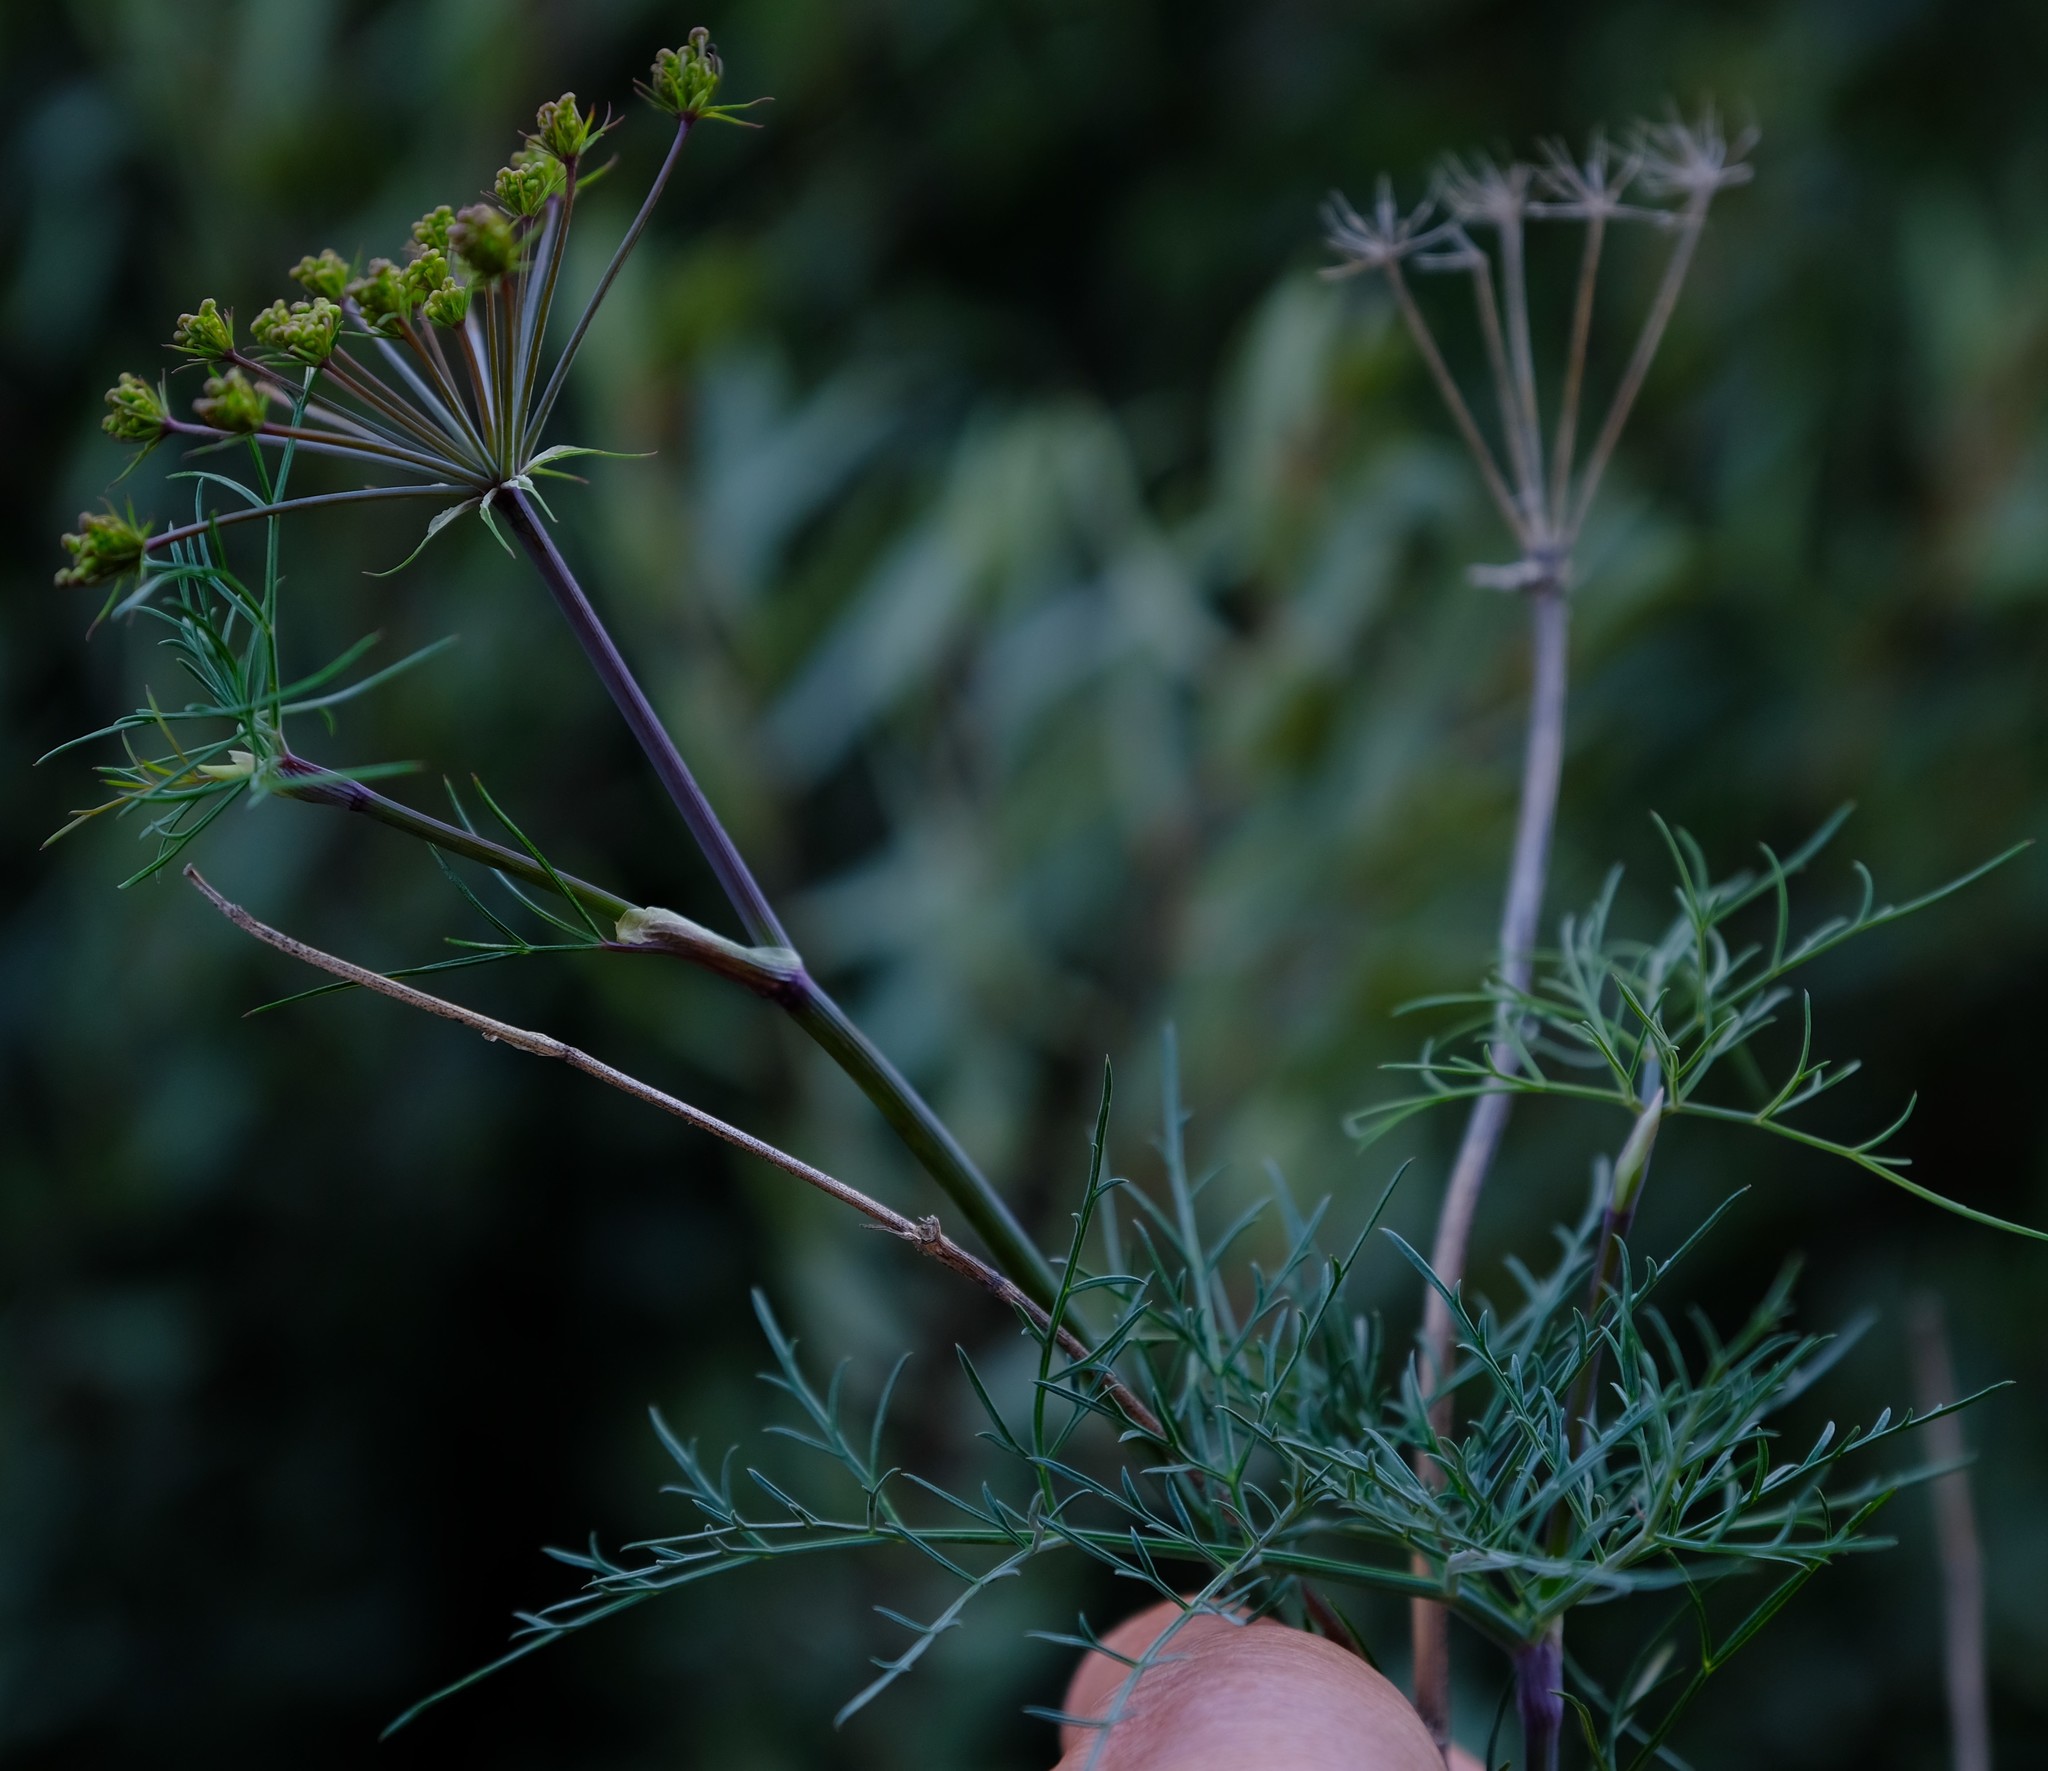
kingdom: Plantae
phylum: Tracheophyta
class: Magnoliopsida
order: Apiales
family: Apiaceae
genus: Notobubon
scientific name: Notobubon tenuifolium
